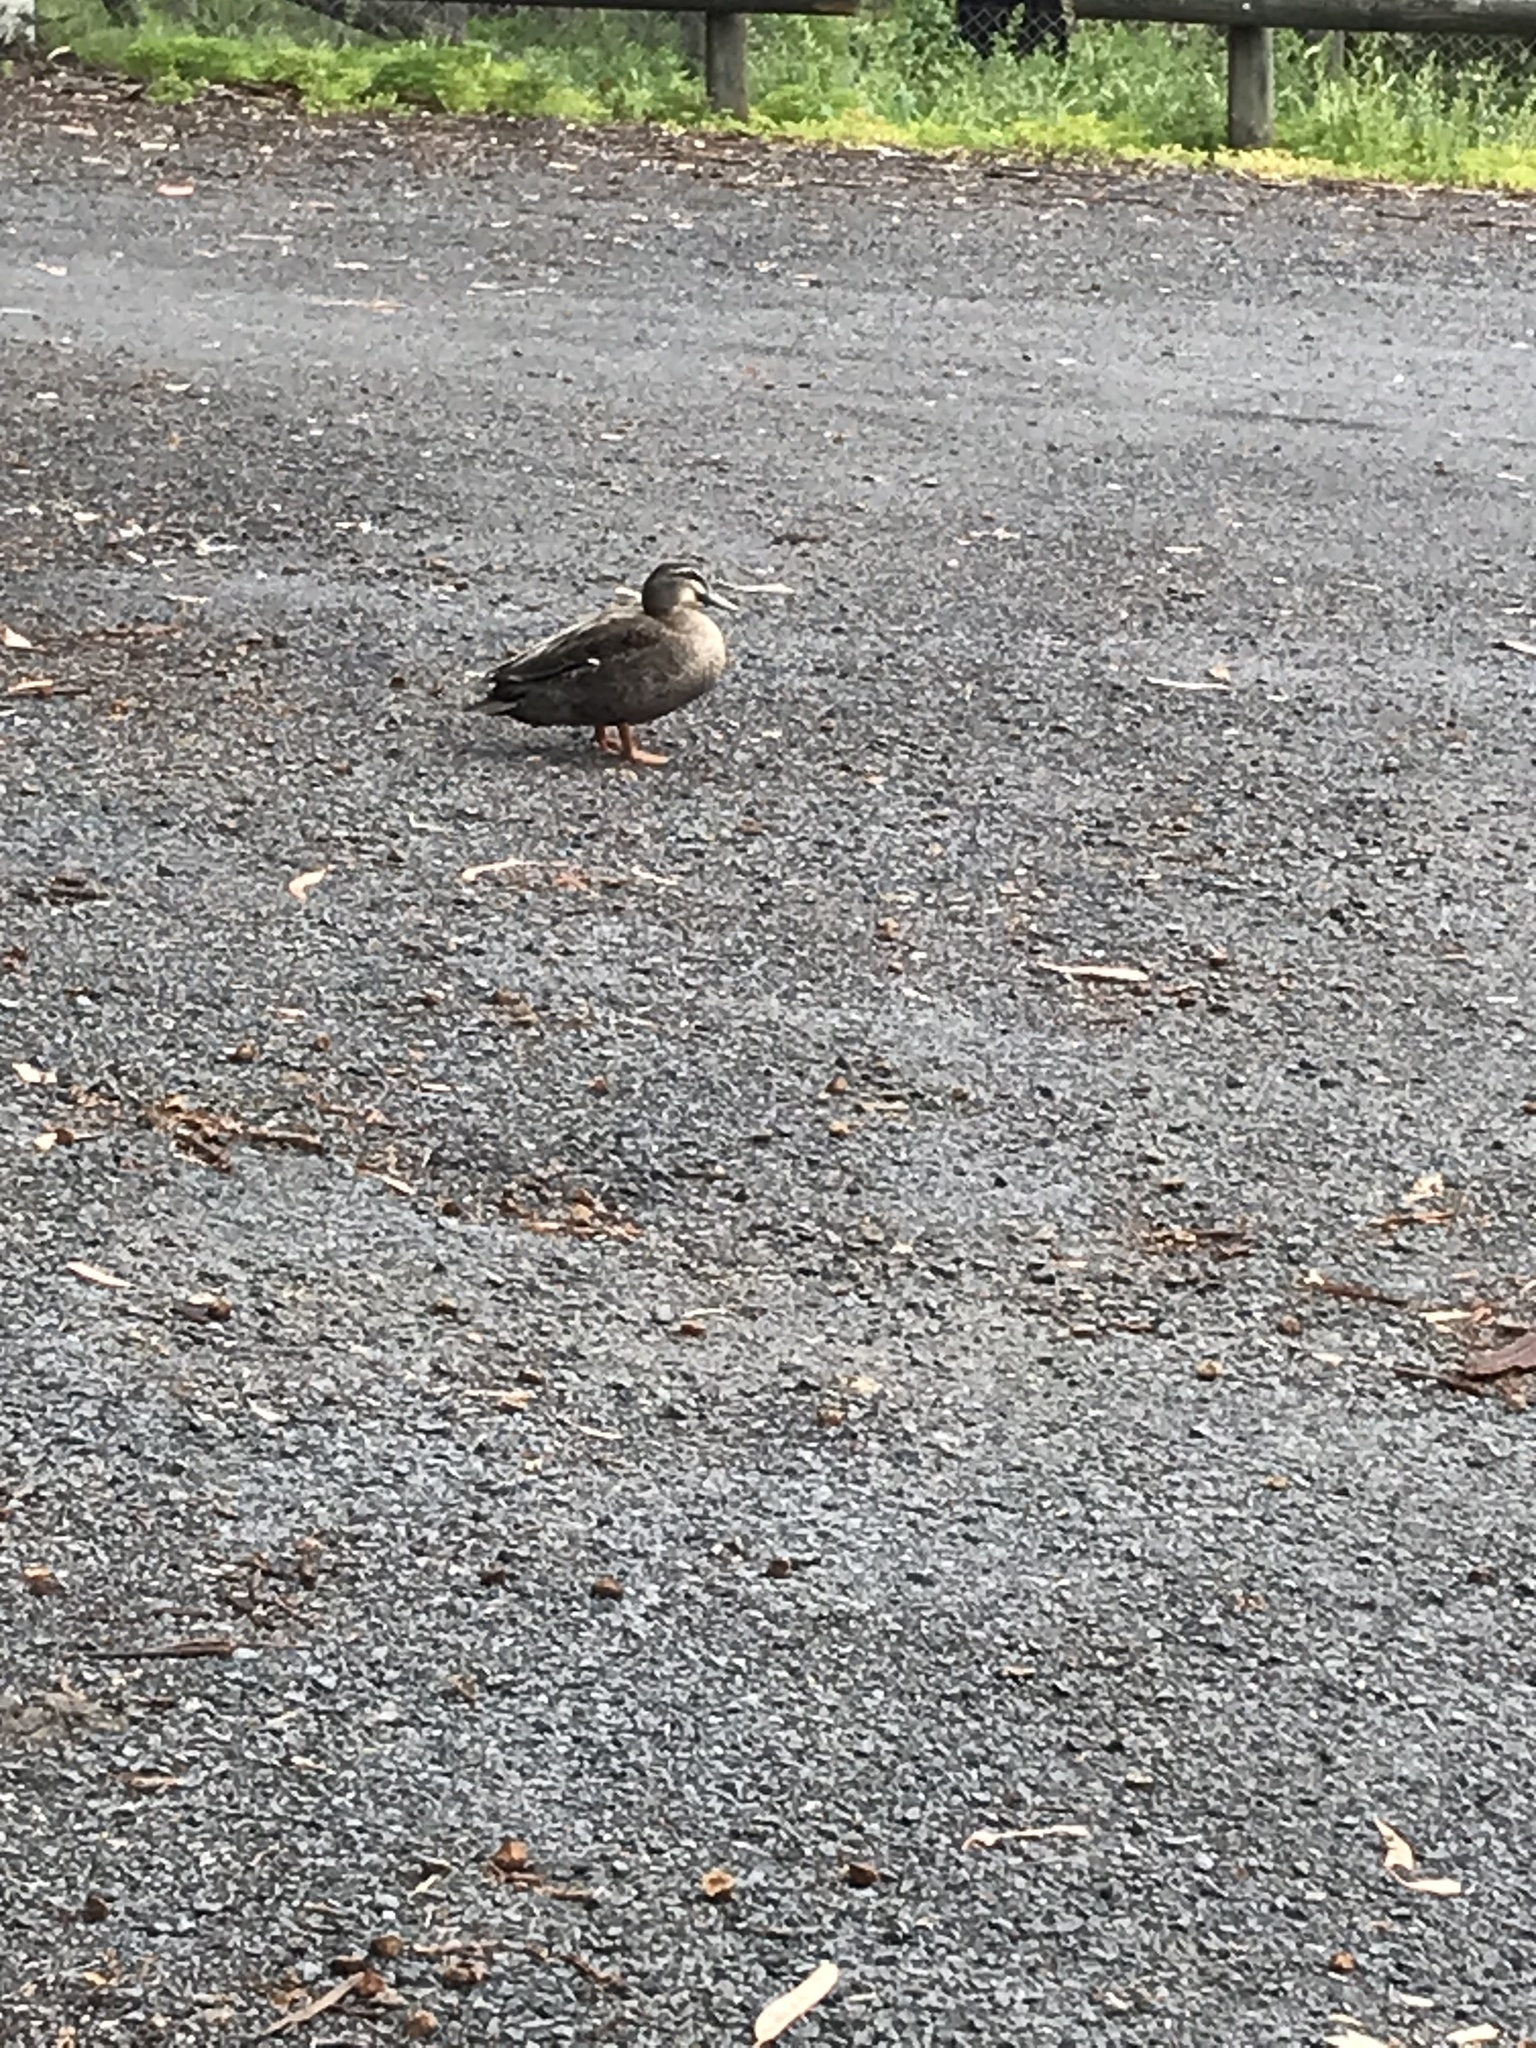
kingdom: Animalia
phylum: Chordata
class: Aves
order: Anseriformes
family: Anatidae
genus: Anas
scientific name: Anas
